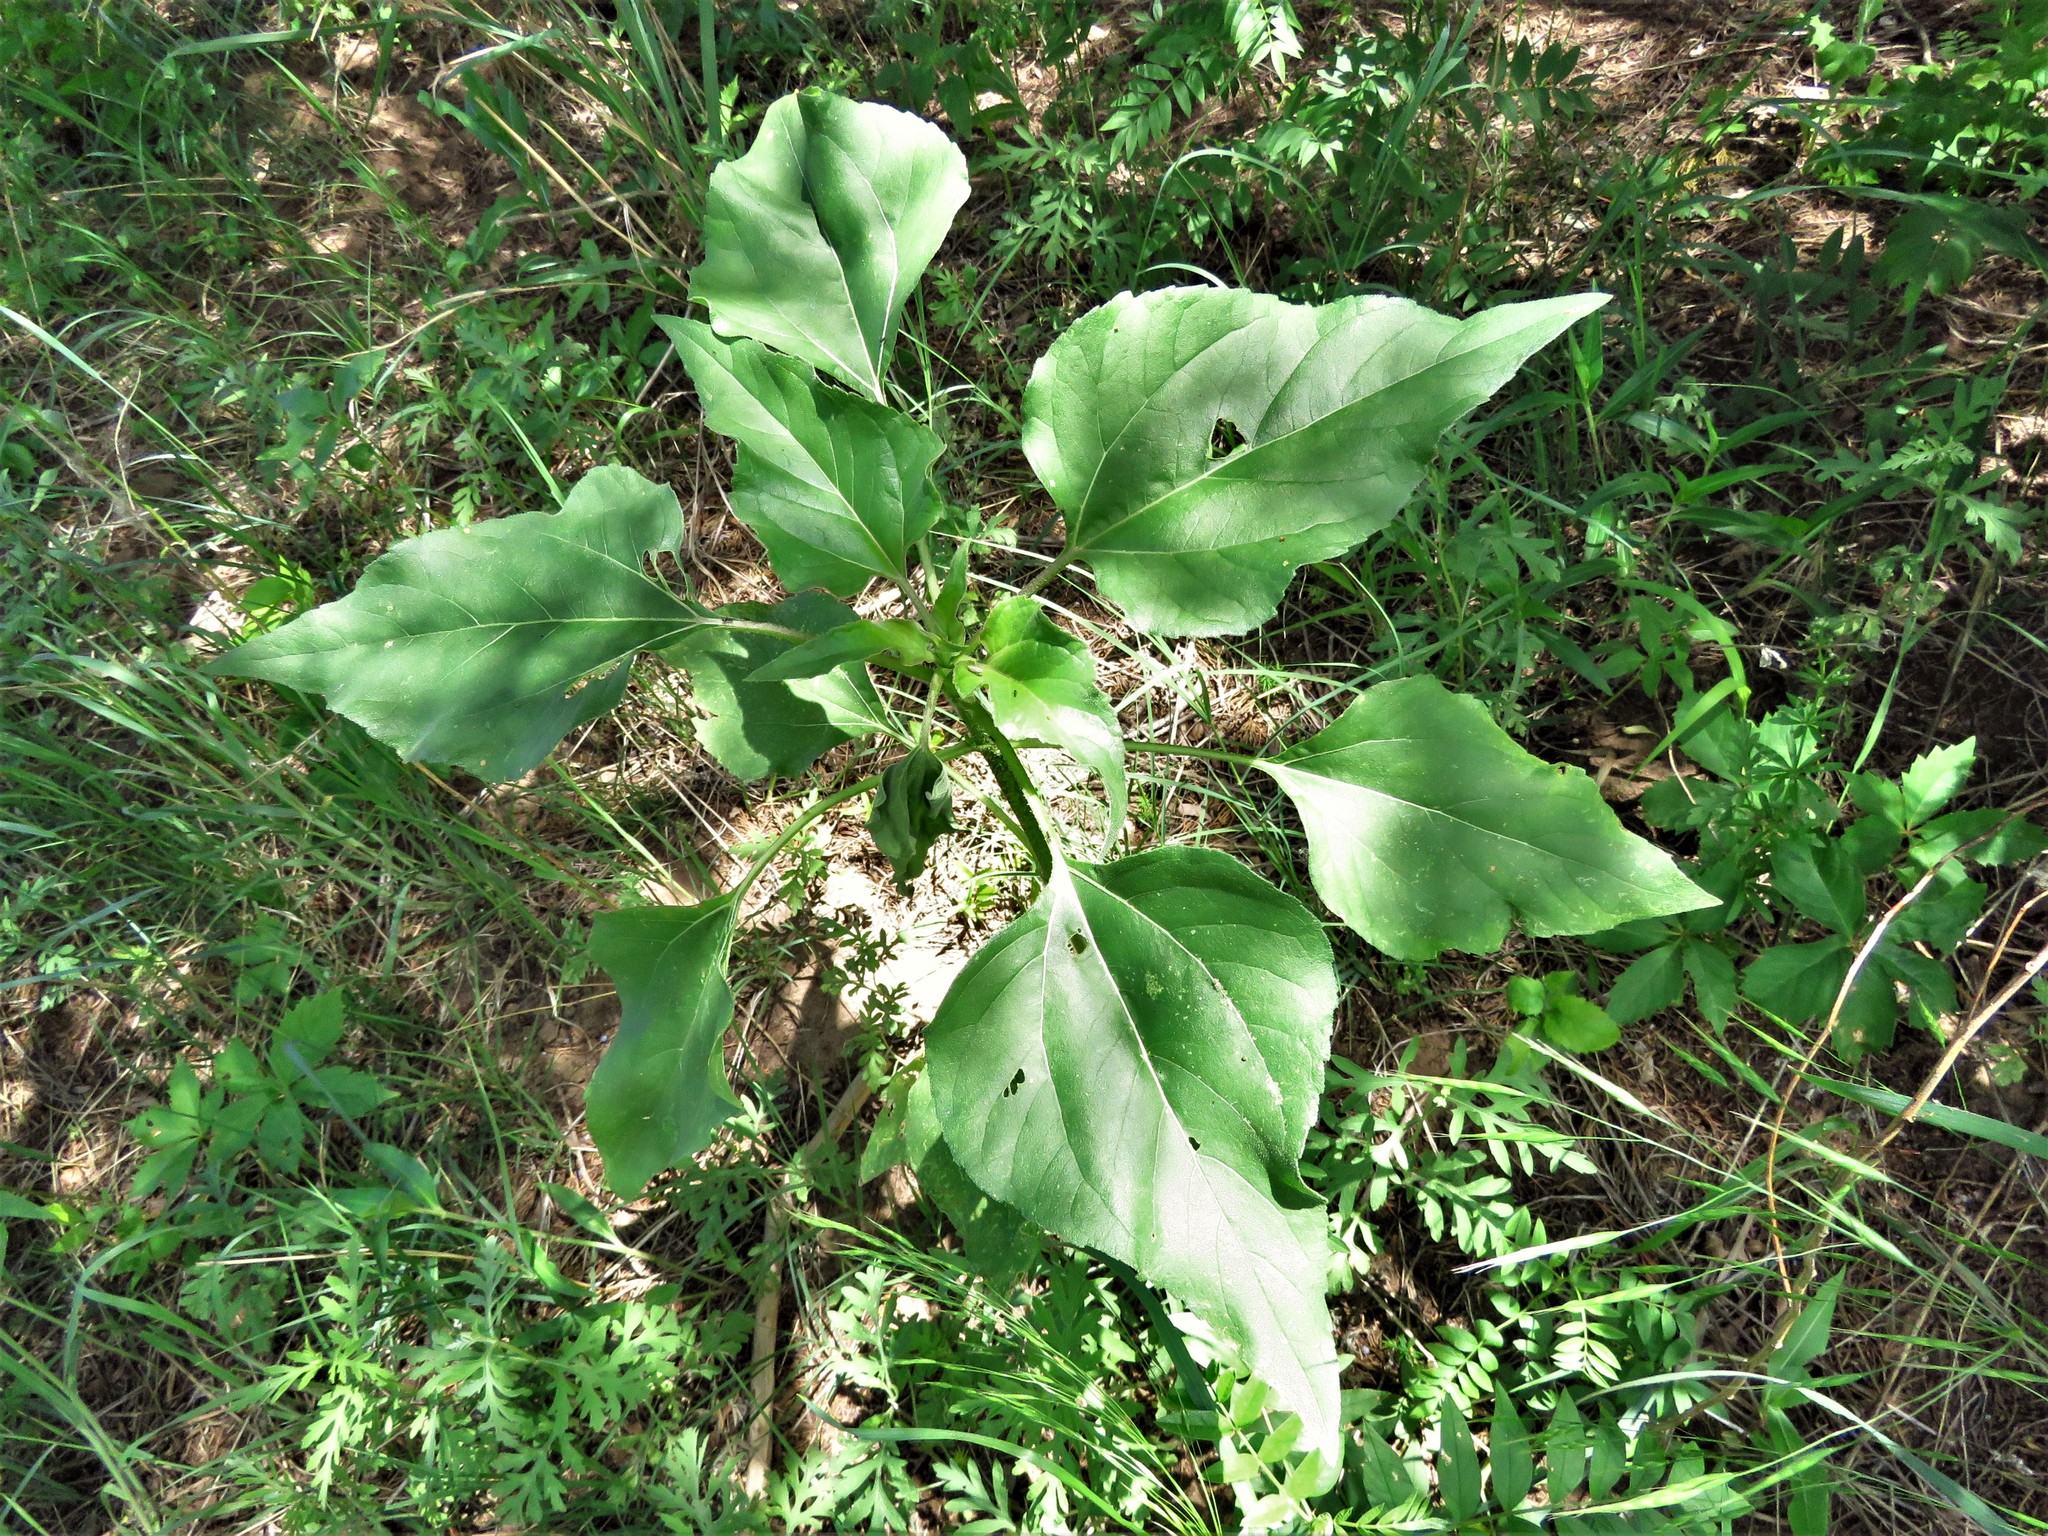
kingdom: Plantae
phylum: Tracheophyta
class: Magnoliopsida
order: Asterales
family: Asteraceae
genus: Helianthus
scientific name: Helianthus annuus
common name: Sunflower
